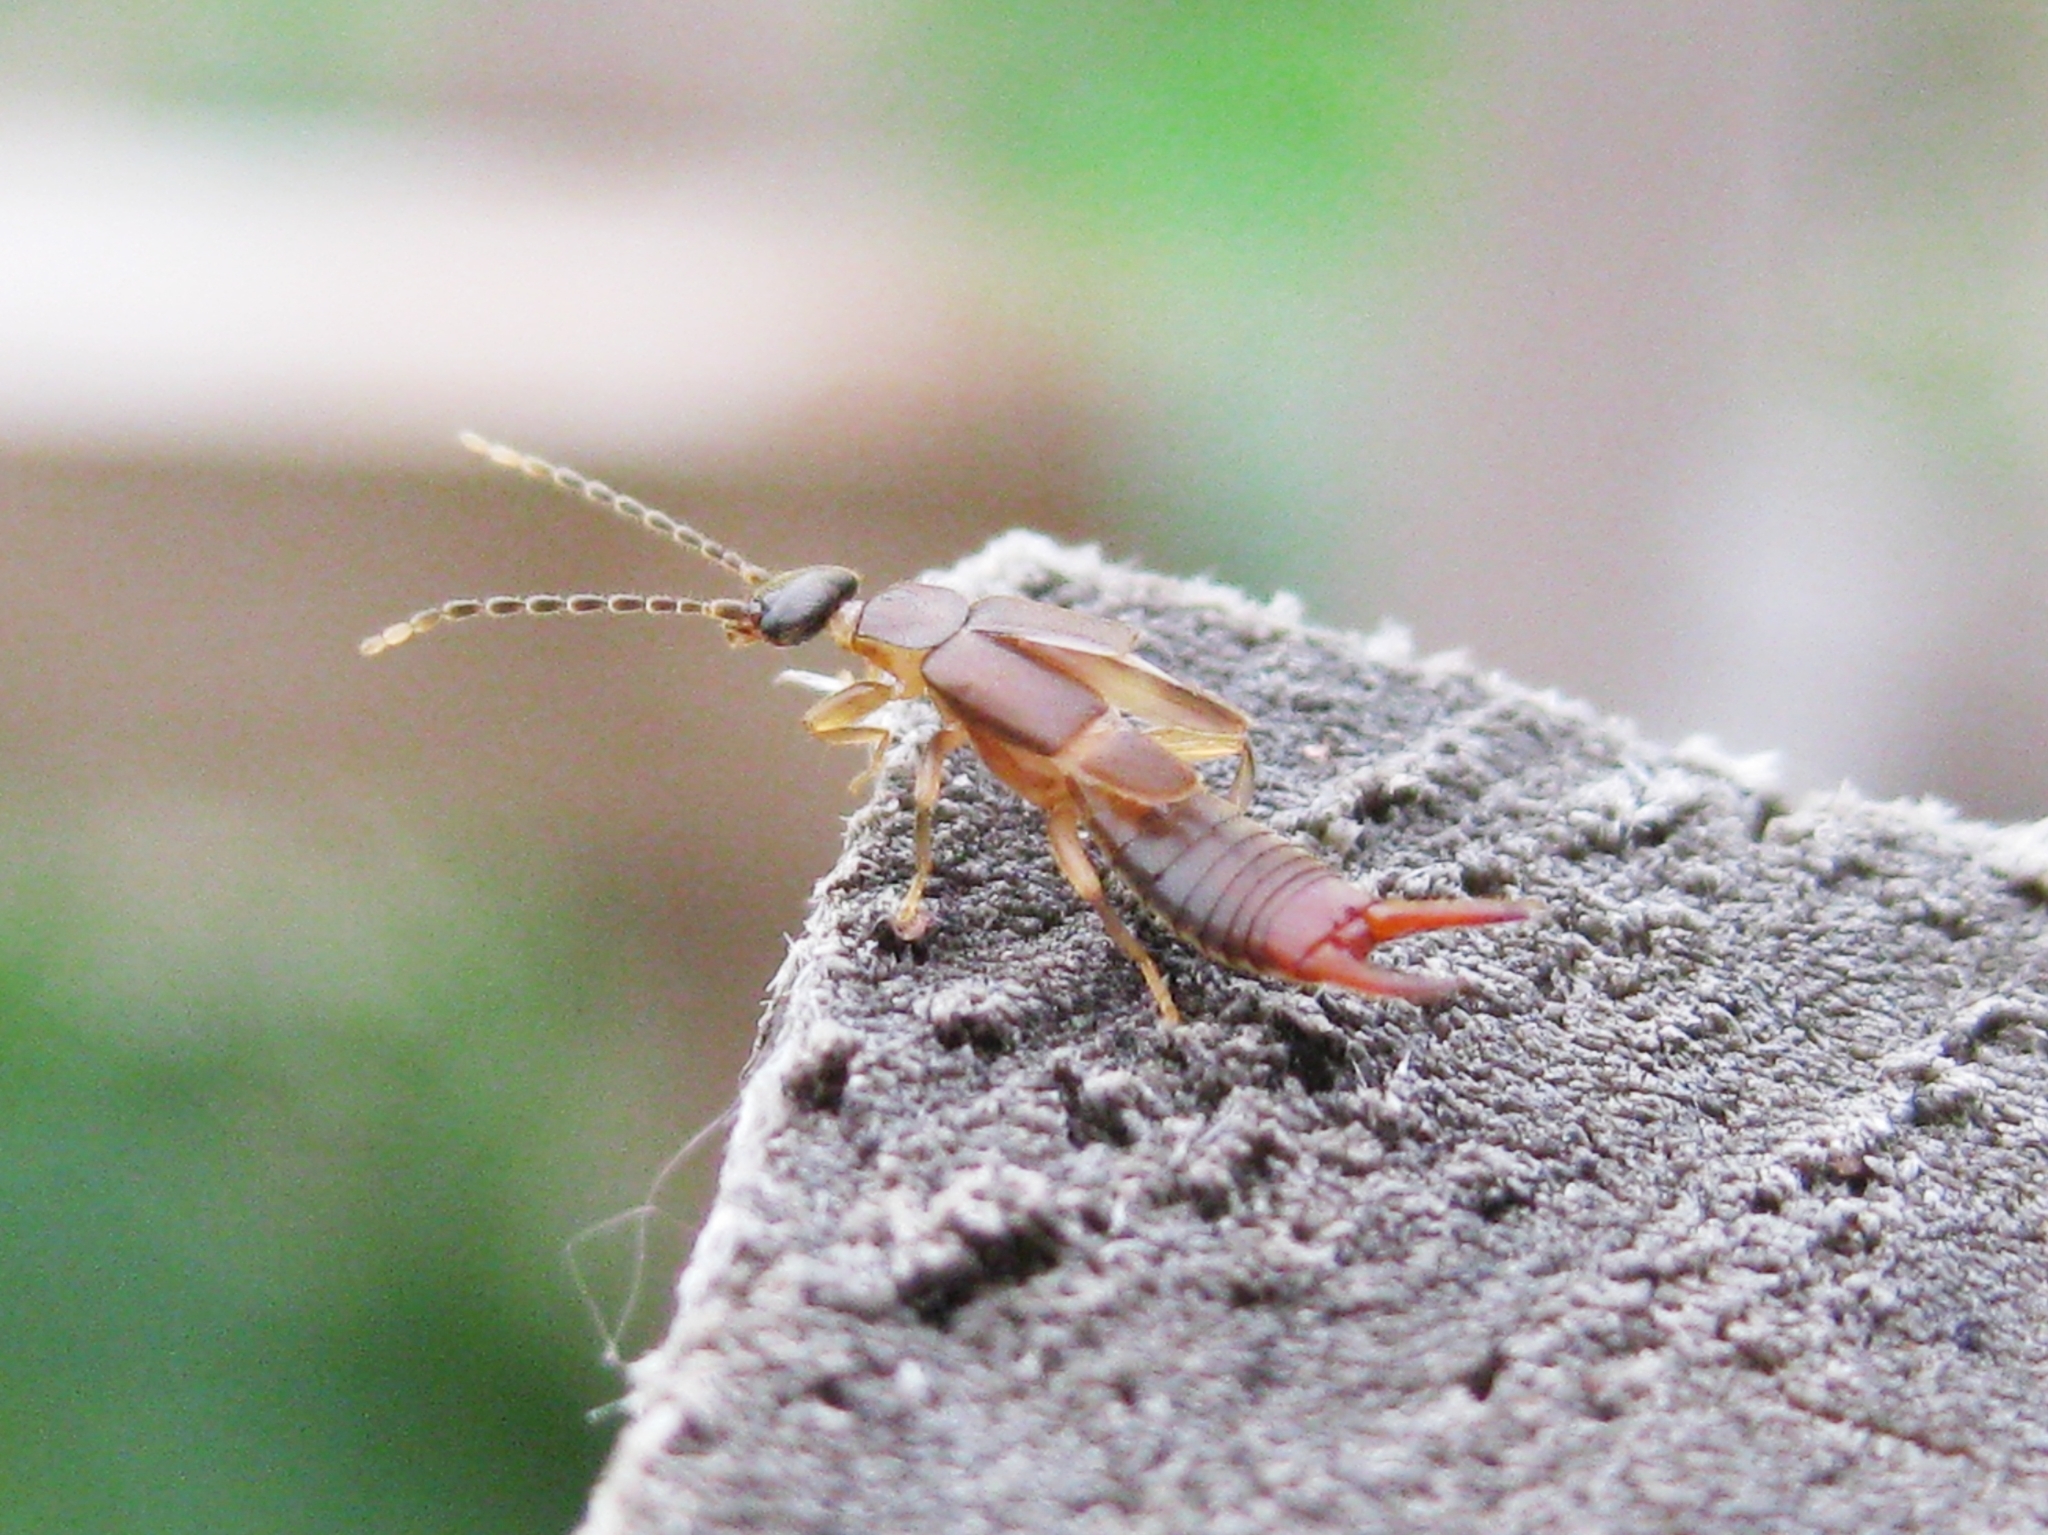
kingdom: Animalia
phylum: Arthropoda
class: Insecta
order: Dermaptera
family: Spongiphoridae
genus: Labia
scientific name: Labia minor
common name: Lesser earwig
